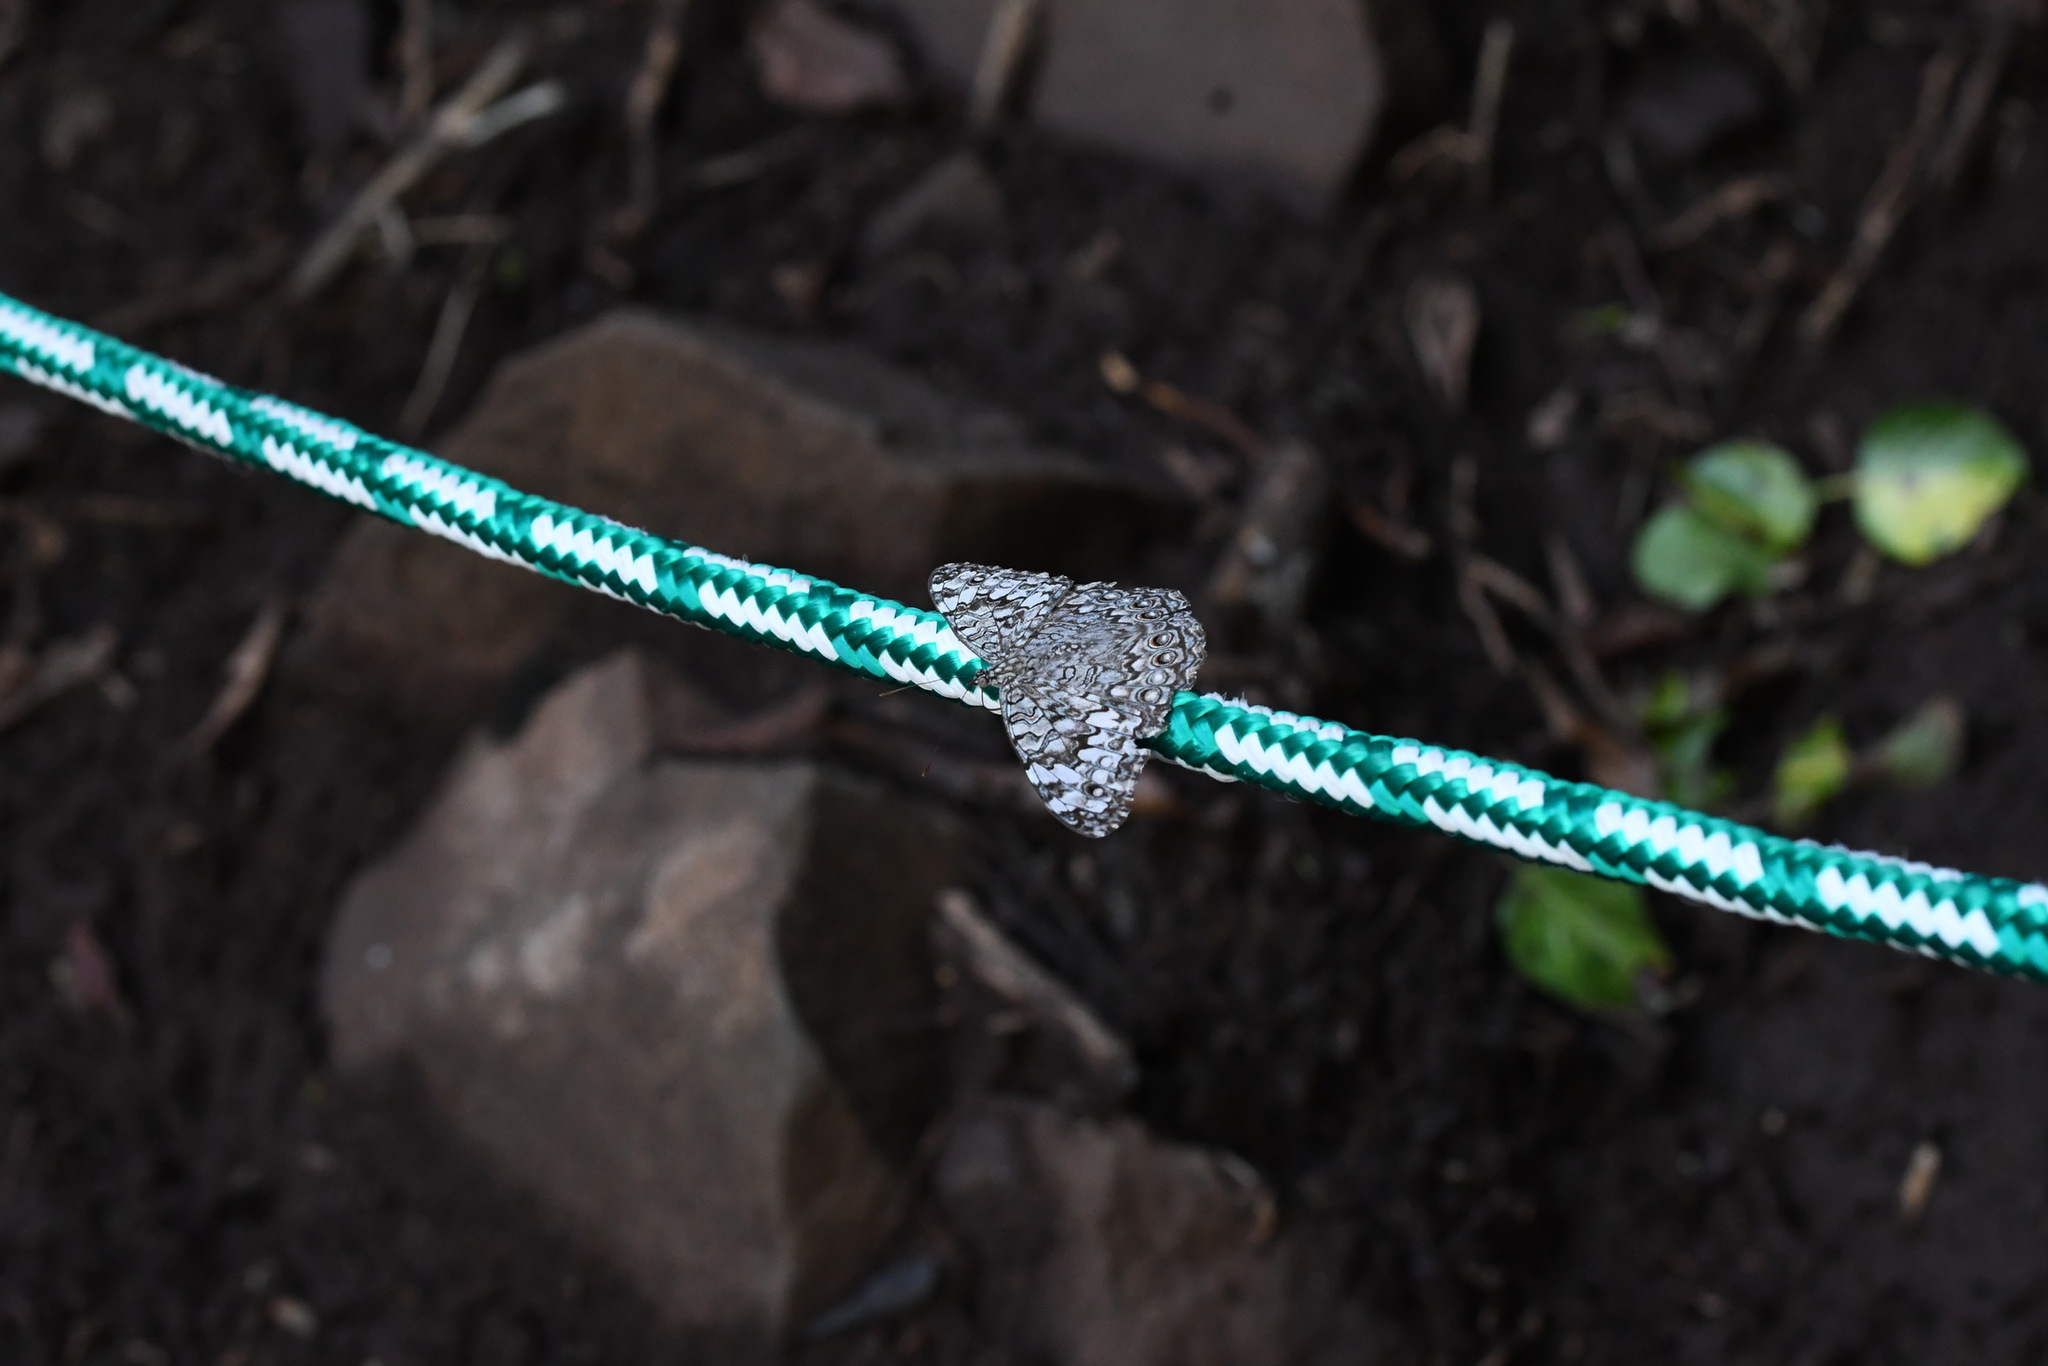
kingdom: Animalia
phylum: Arthropoda
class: Insecta
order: Lepidoptera
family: Nymphalidae
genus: Hamadryas
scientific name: Hamadryas februa
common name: Gray cracker
